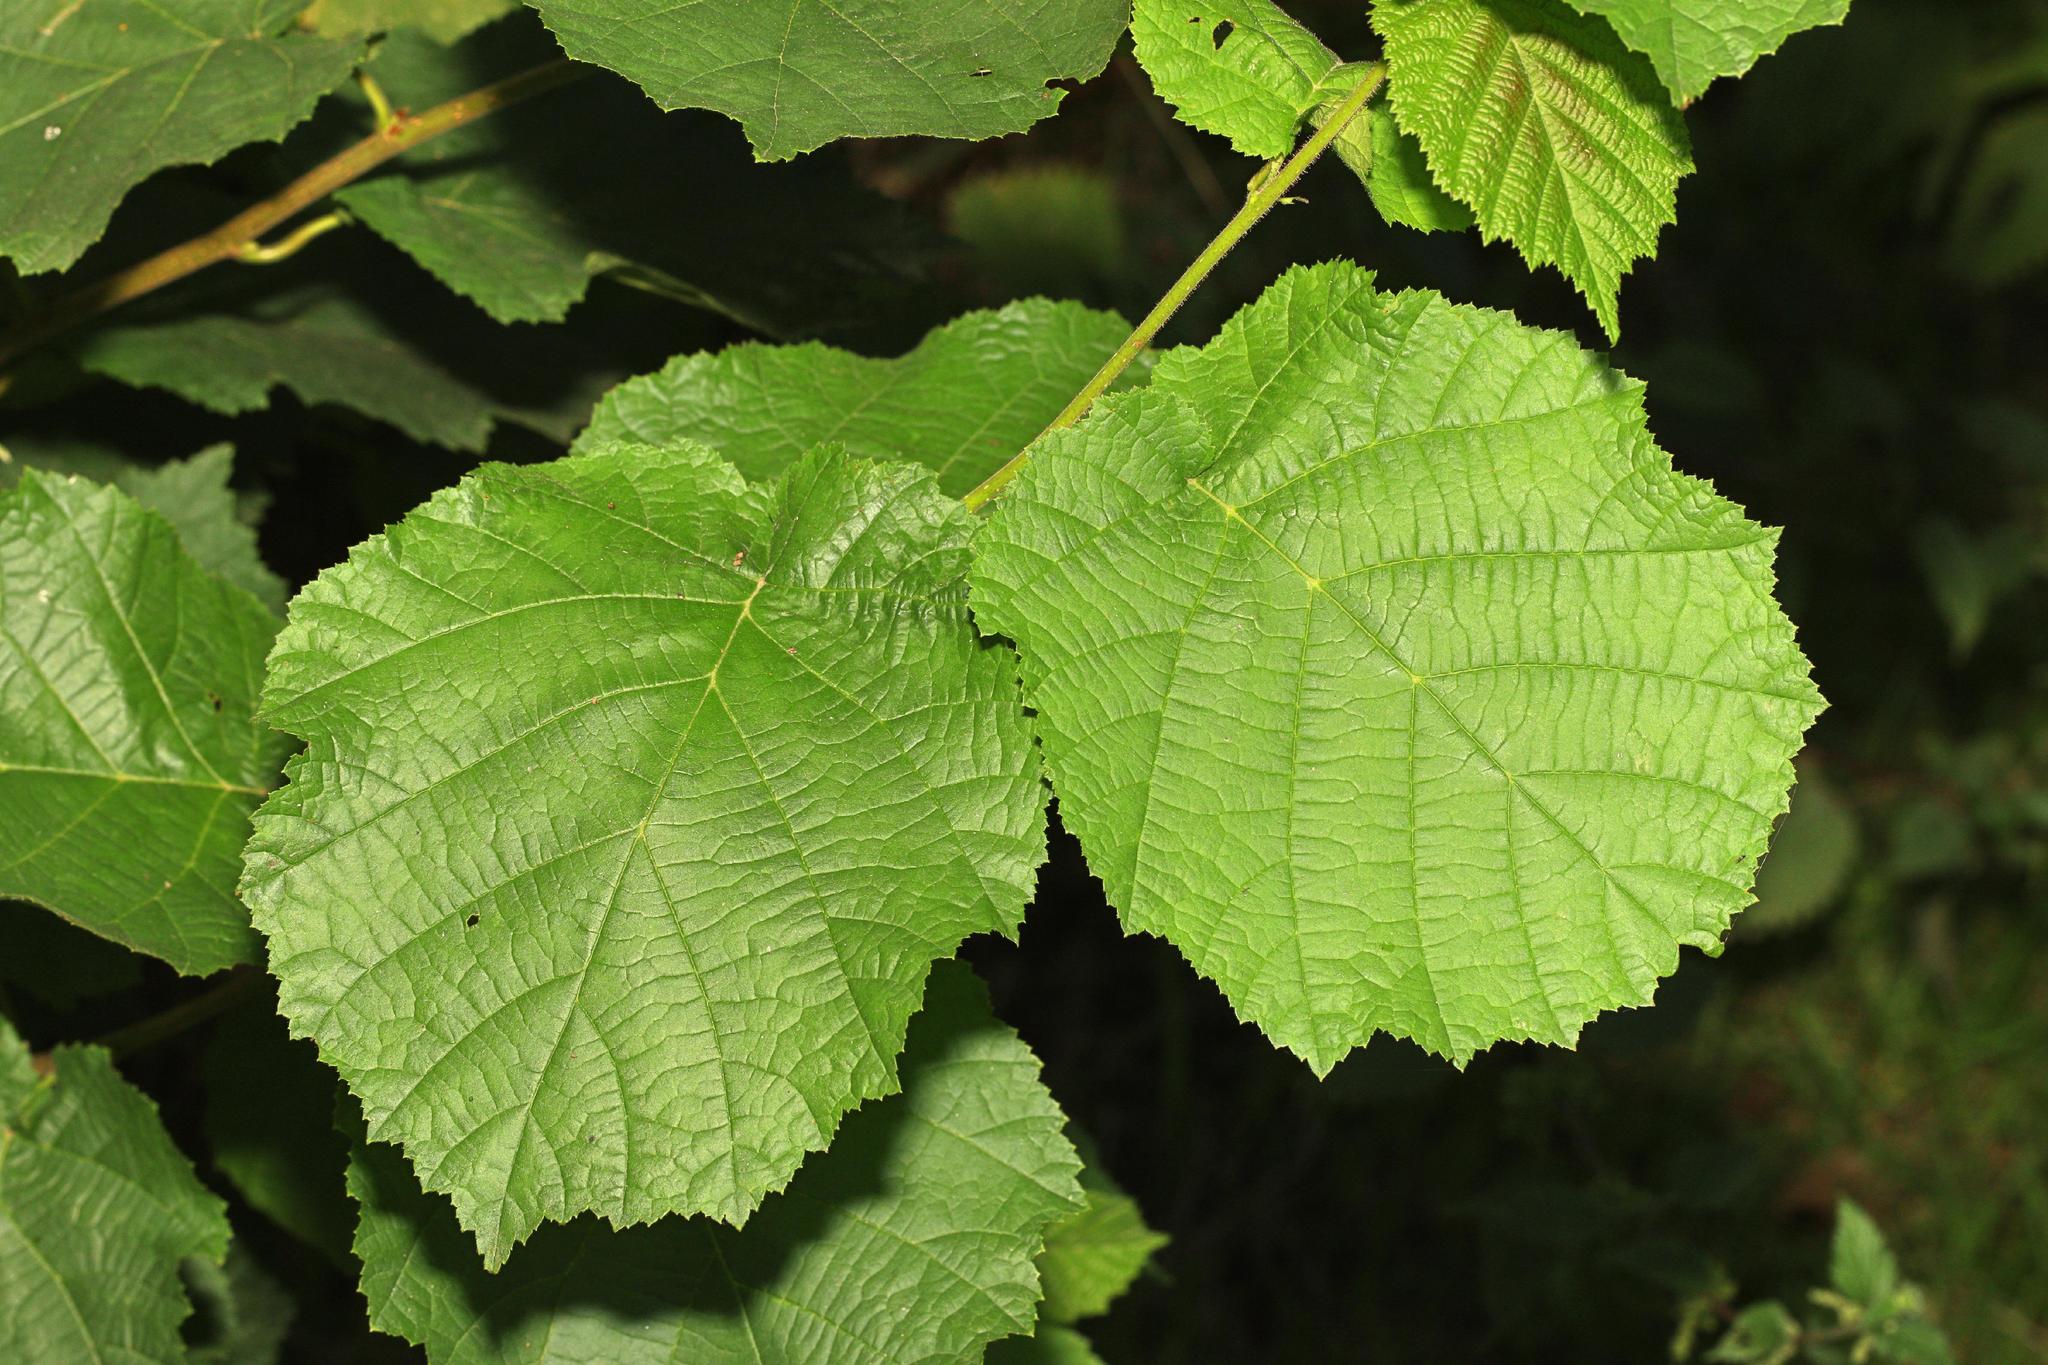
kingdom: Plantae
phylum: Tracheophyta
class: Magnoliopsida
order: Fagales
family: Betulaceae
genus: Corylus
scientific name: Corylus avellana
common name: European hazel
